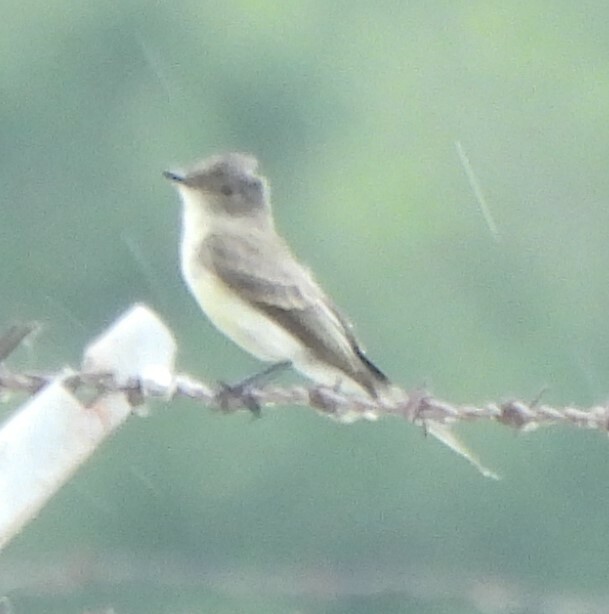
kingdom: Animalia
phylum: Chordata
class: Aves
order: Passeriformes
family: Tyrannidae
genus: Sayornis
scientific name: Sayornis phoebe
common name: Eastern phoebe
